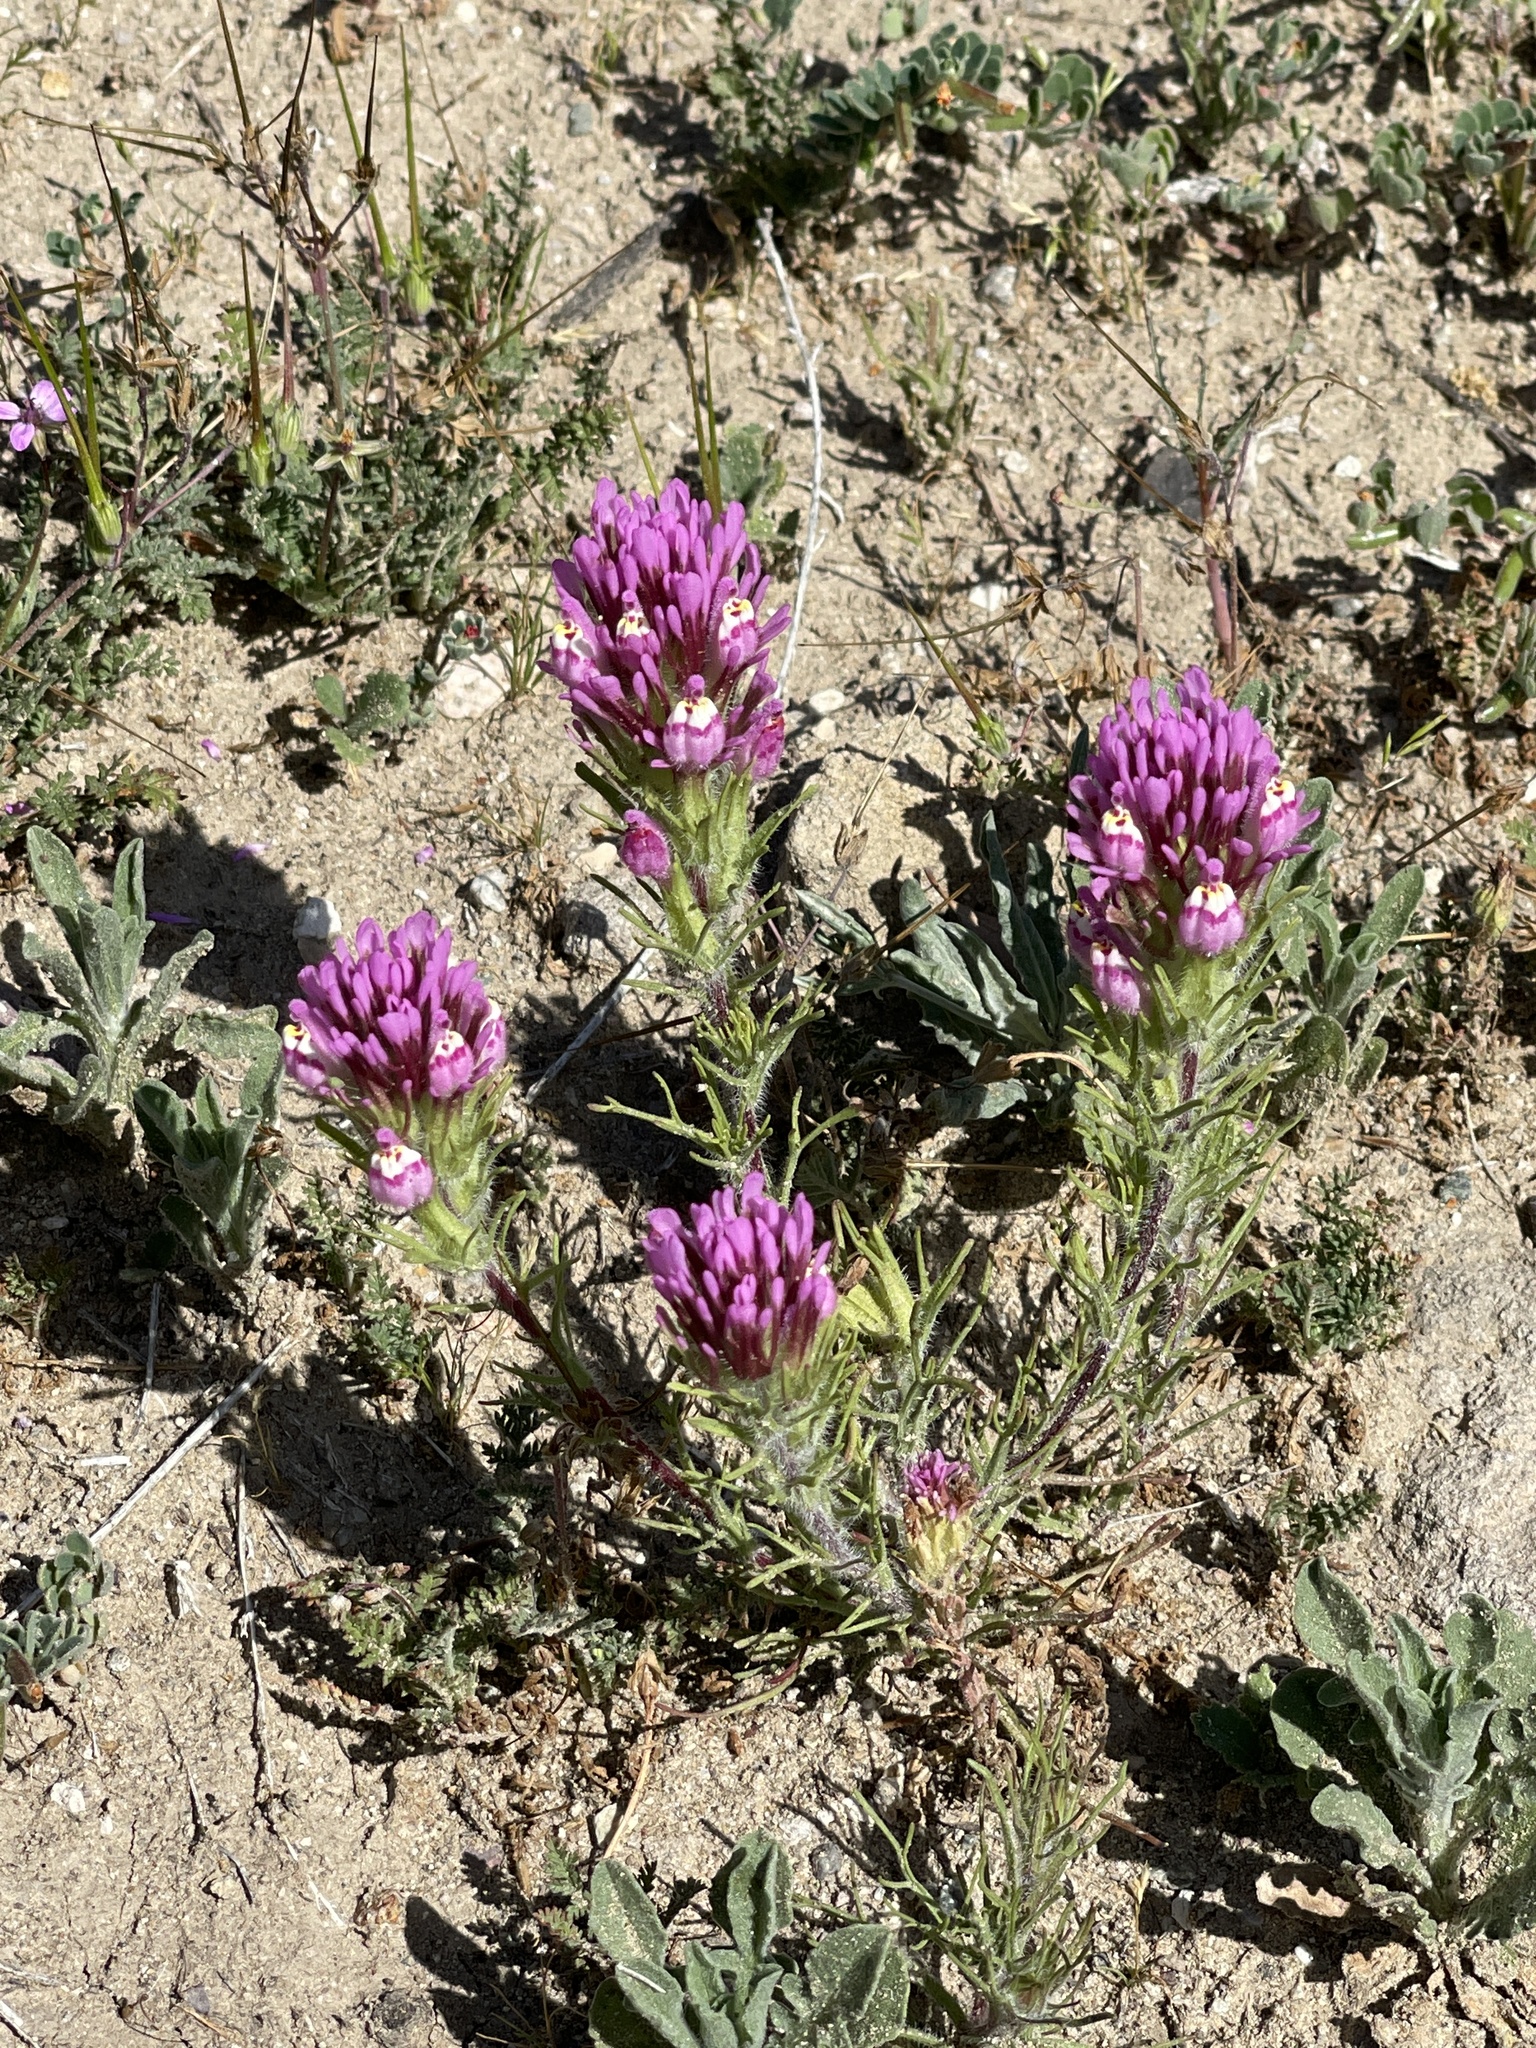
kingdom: Plantae
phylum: Tracheophyta
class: Magnoliopsida
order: Lamiales
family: Orobanchaceae
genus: Castilleja
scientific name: Castilleja exserta
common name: Purple owl-clover
